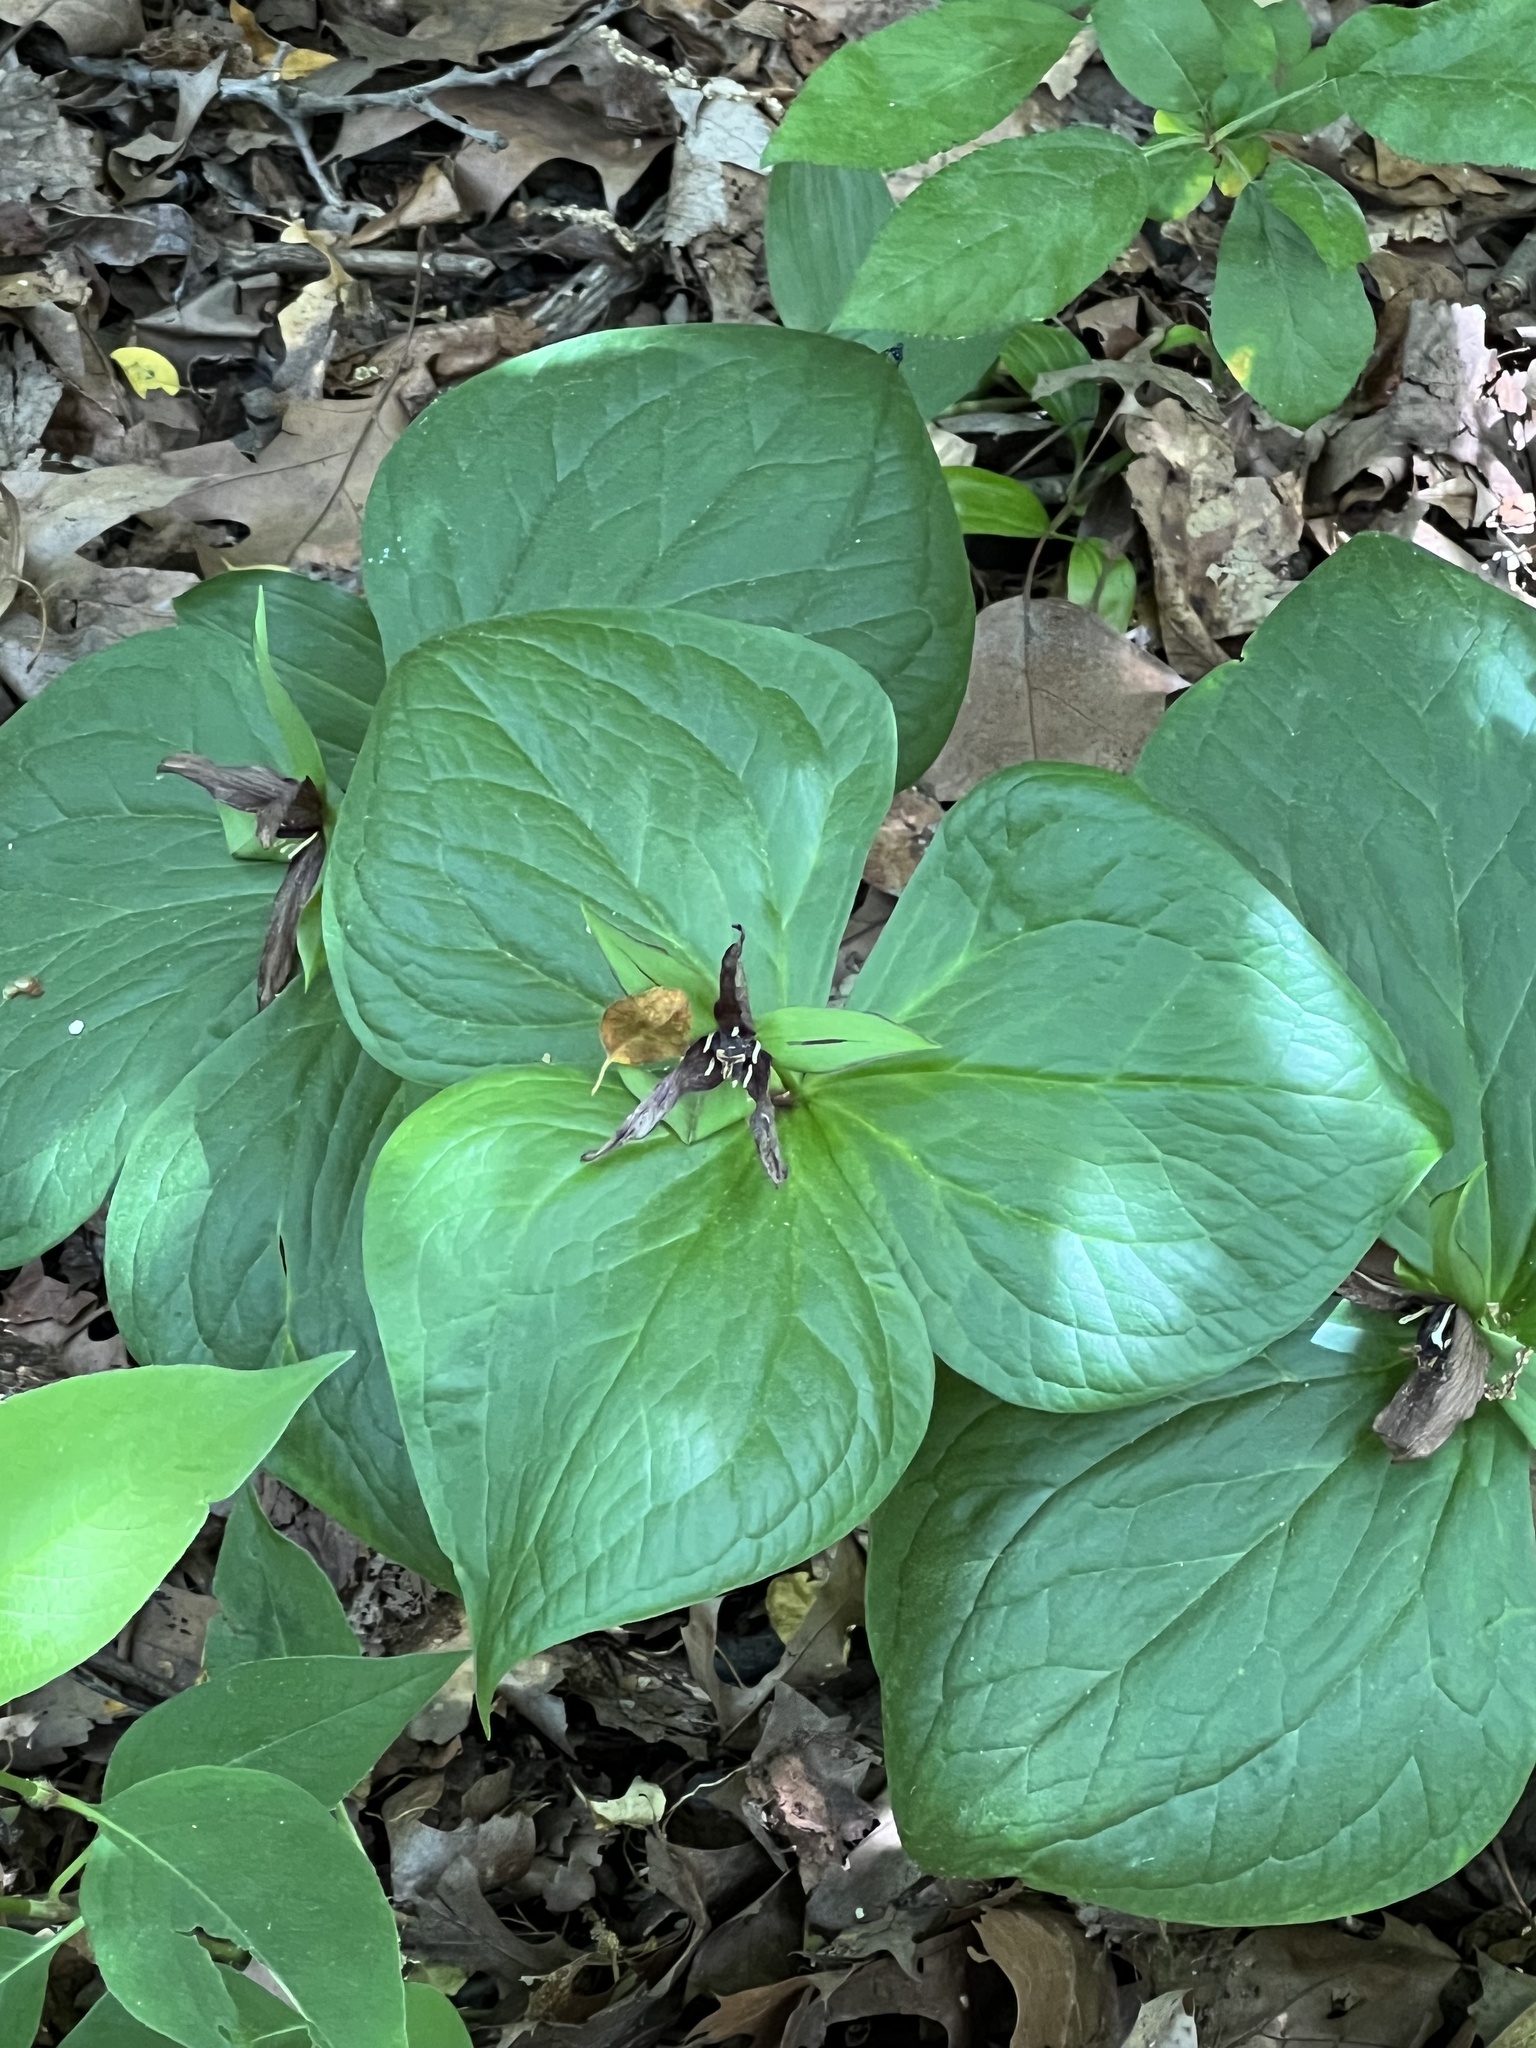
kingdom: Plantae
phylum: Tracheophyta
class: Liliopsida
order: Liliales
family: Melanthiaceae
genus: Trillium
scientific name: Trillium erectum
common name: Purple trillium
